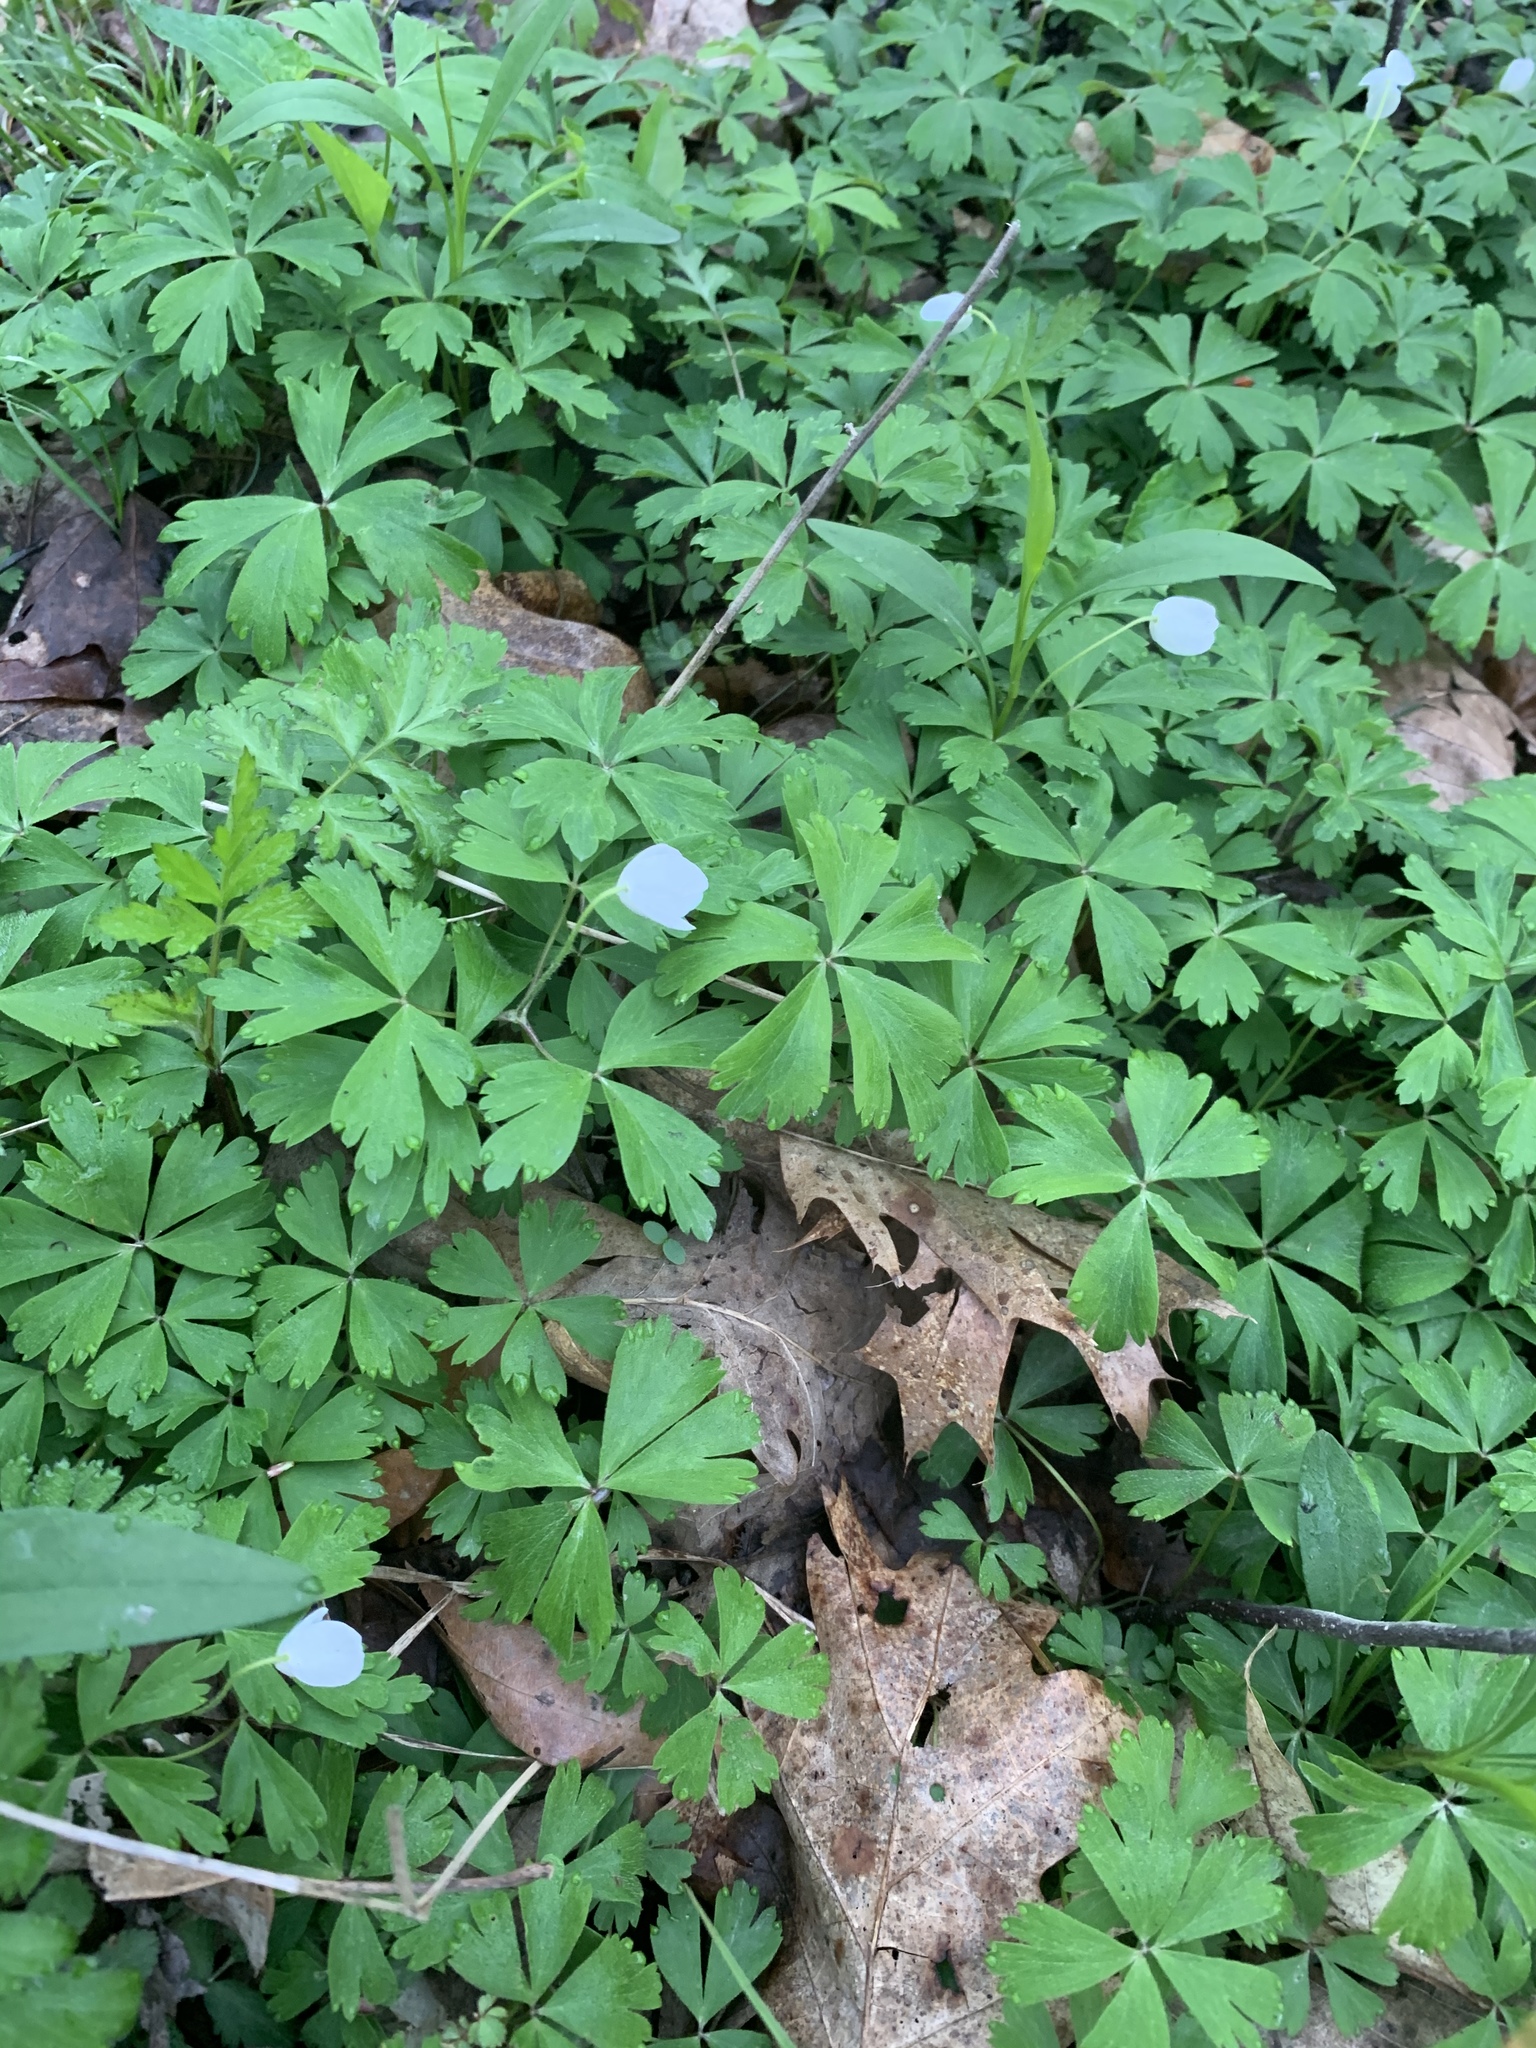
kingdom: Plantae
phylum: Tracheophyta
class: Magnoliopsida
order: Ranunculales
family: Ranunculaceae
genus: Anemone
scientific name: Anemone quinquefolia
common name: Wood anemone
